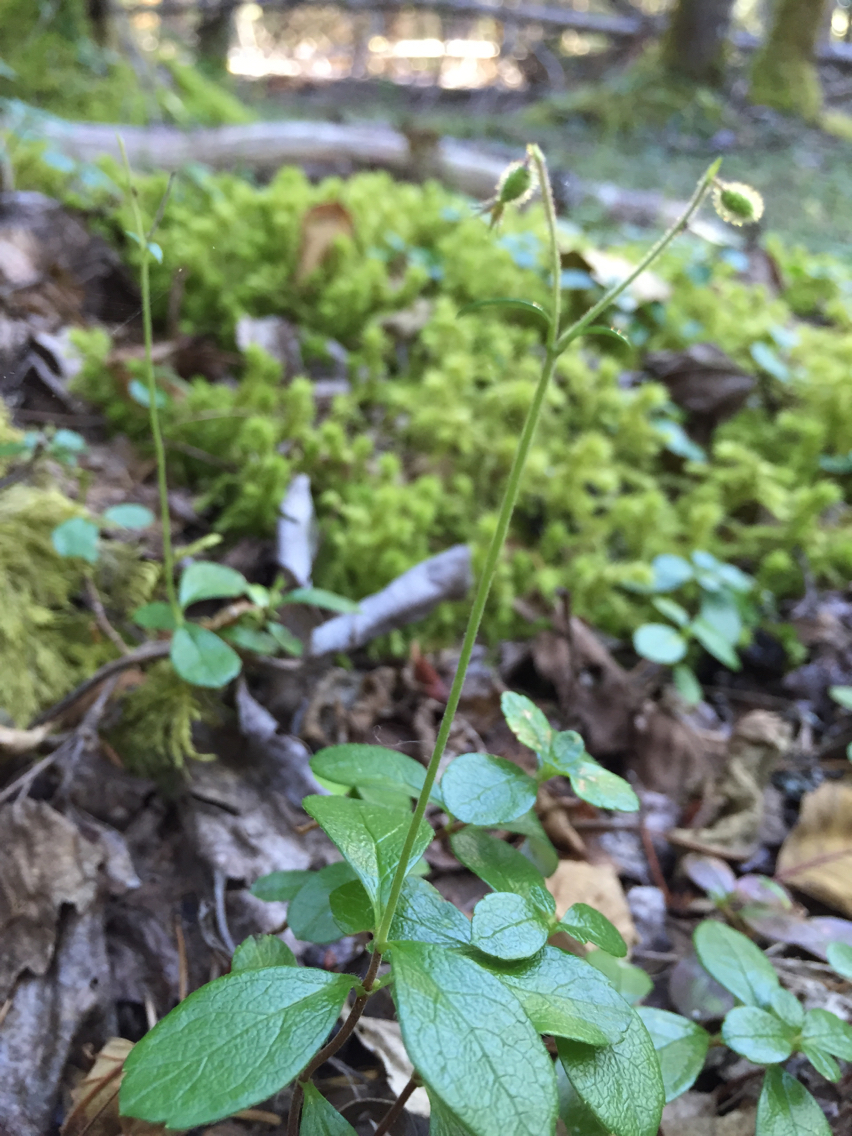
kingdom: Plantae
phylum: Tracheophyta
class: Magnoliopsida
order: Dipsacales
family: Caprifoliaceae
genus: Linnaea
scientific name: Linnaea borealis
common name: Twinflower
